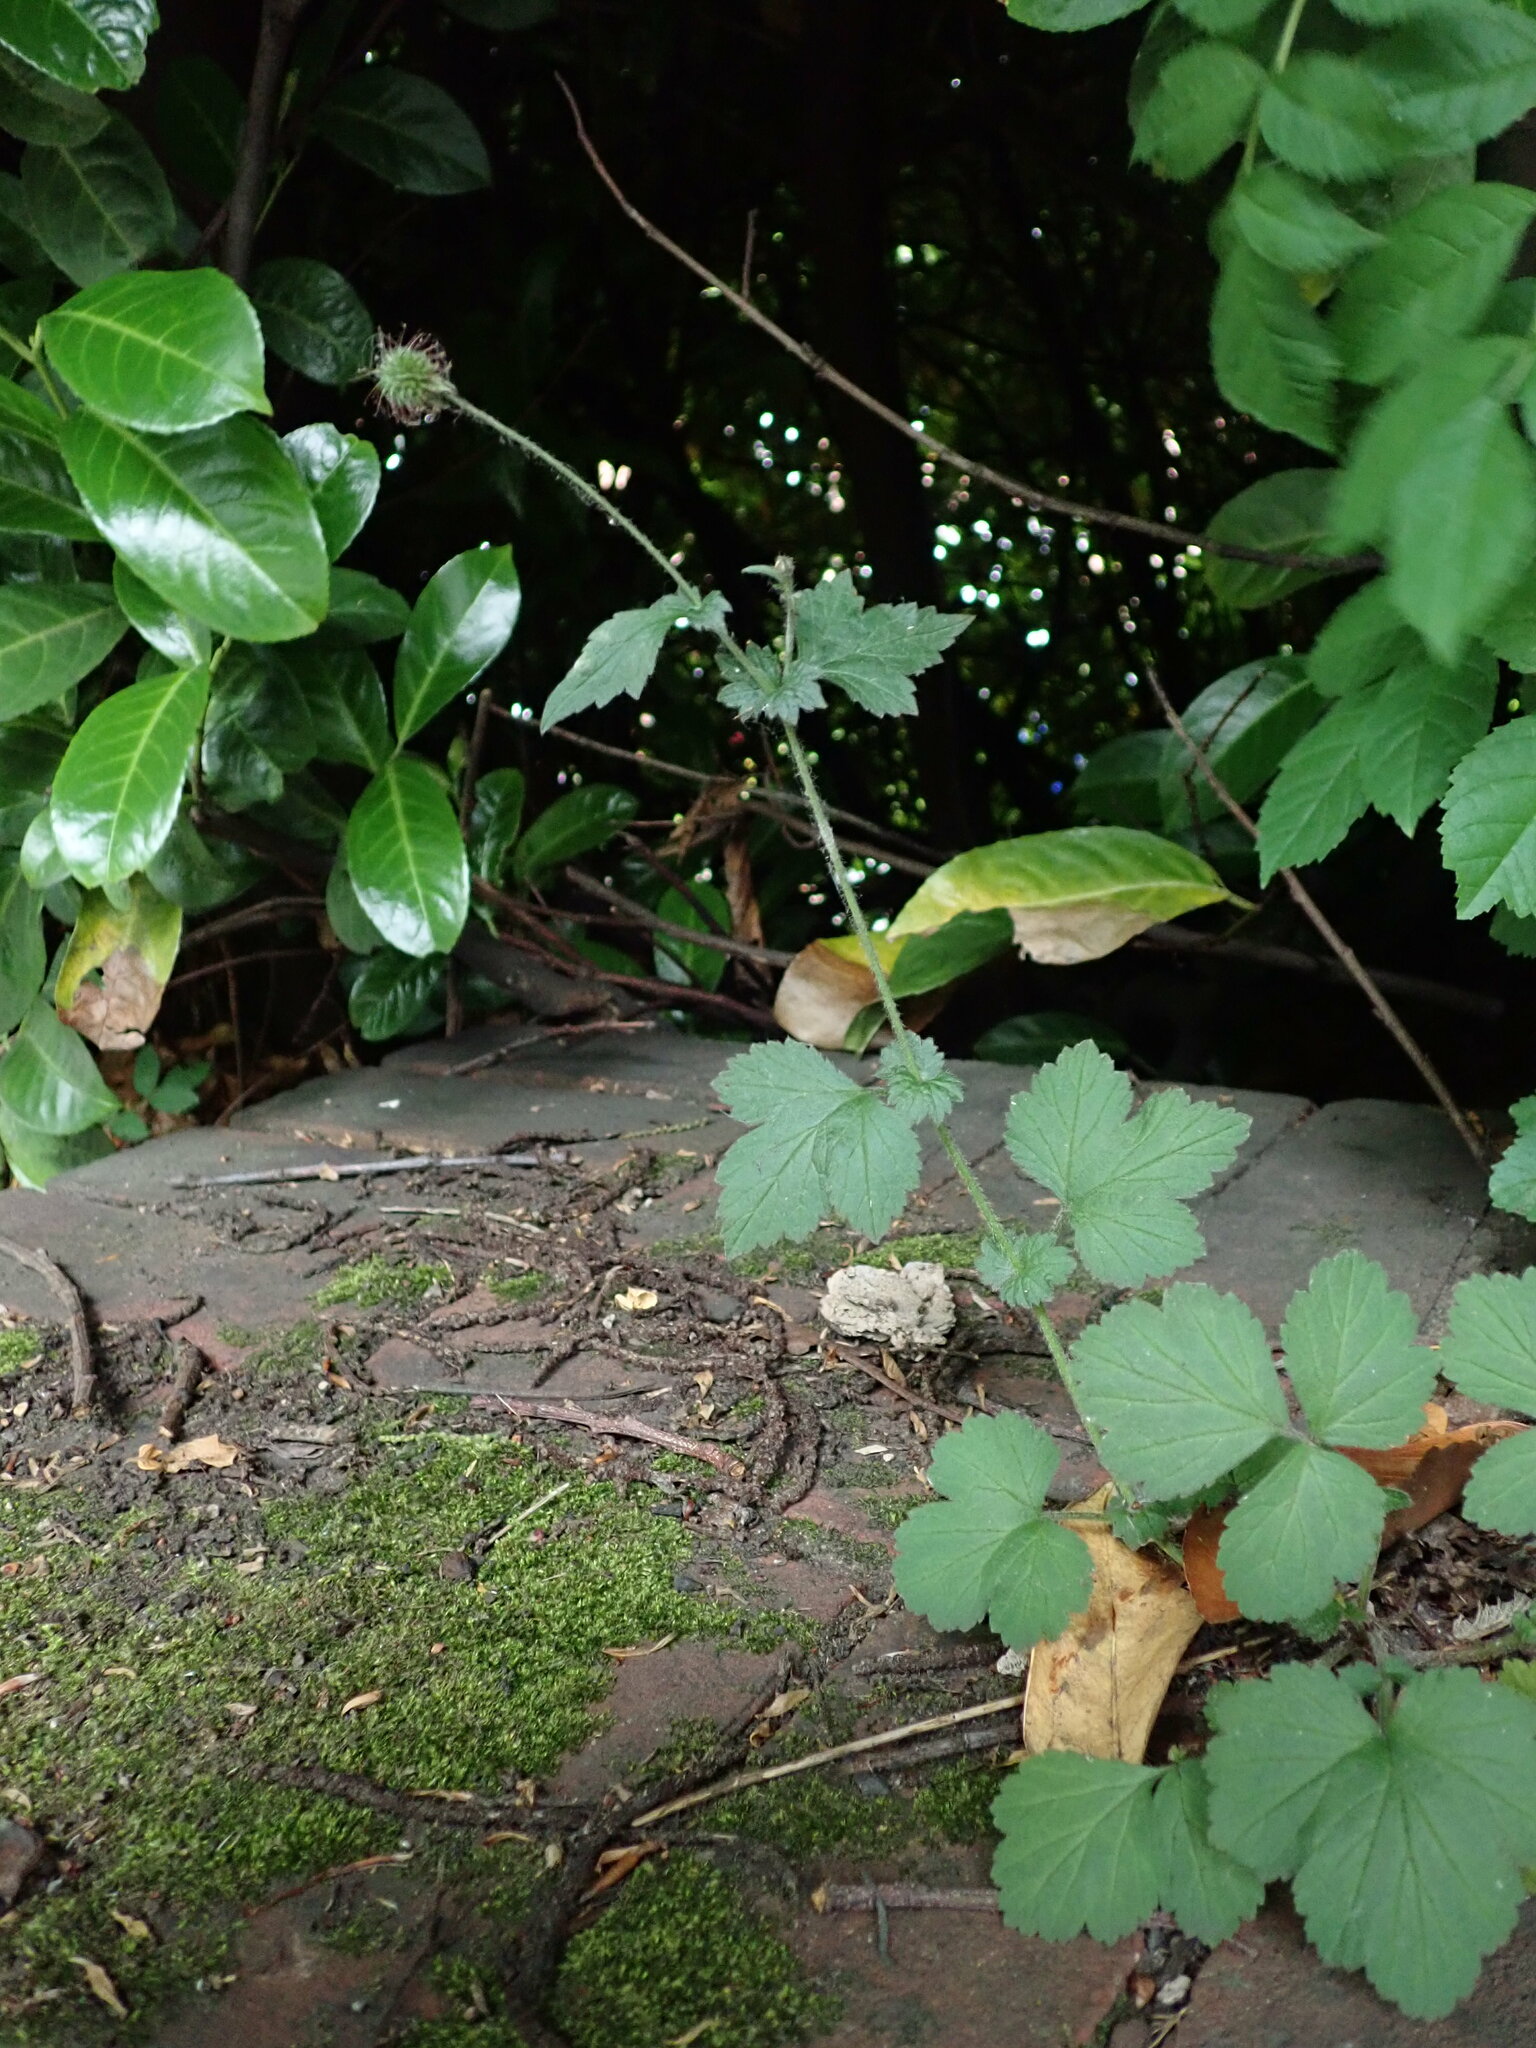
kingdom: Plantae
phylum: Tracheophyta
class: Magnoliopsida
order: Rosales
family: Rosaceae
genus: Geum
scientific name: Geum urbanum
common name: Wood avens
